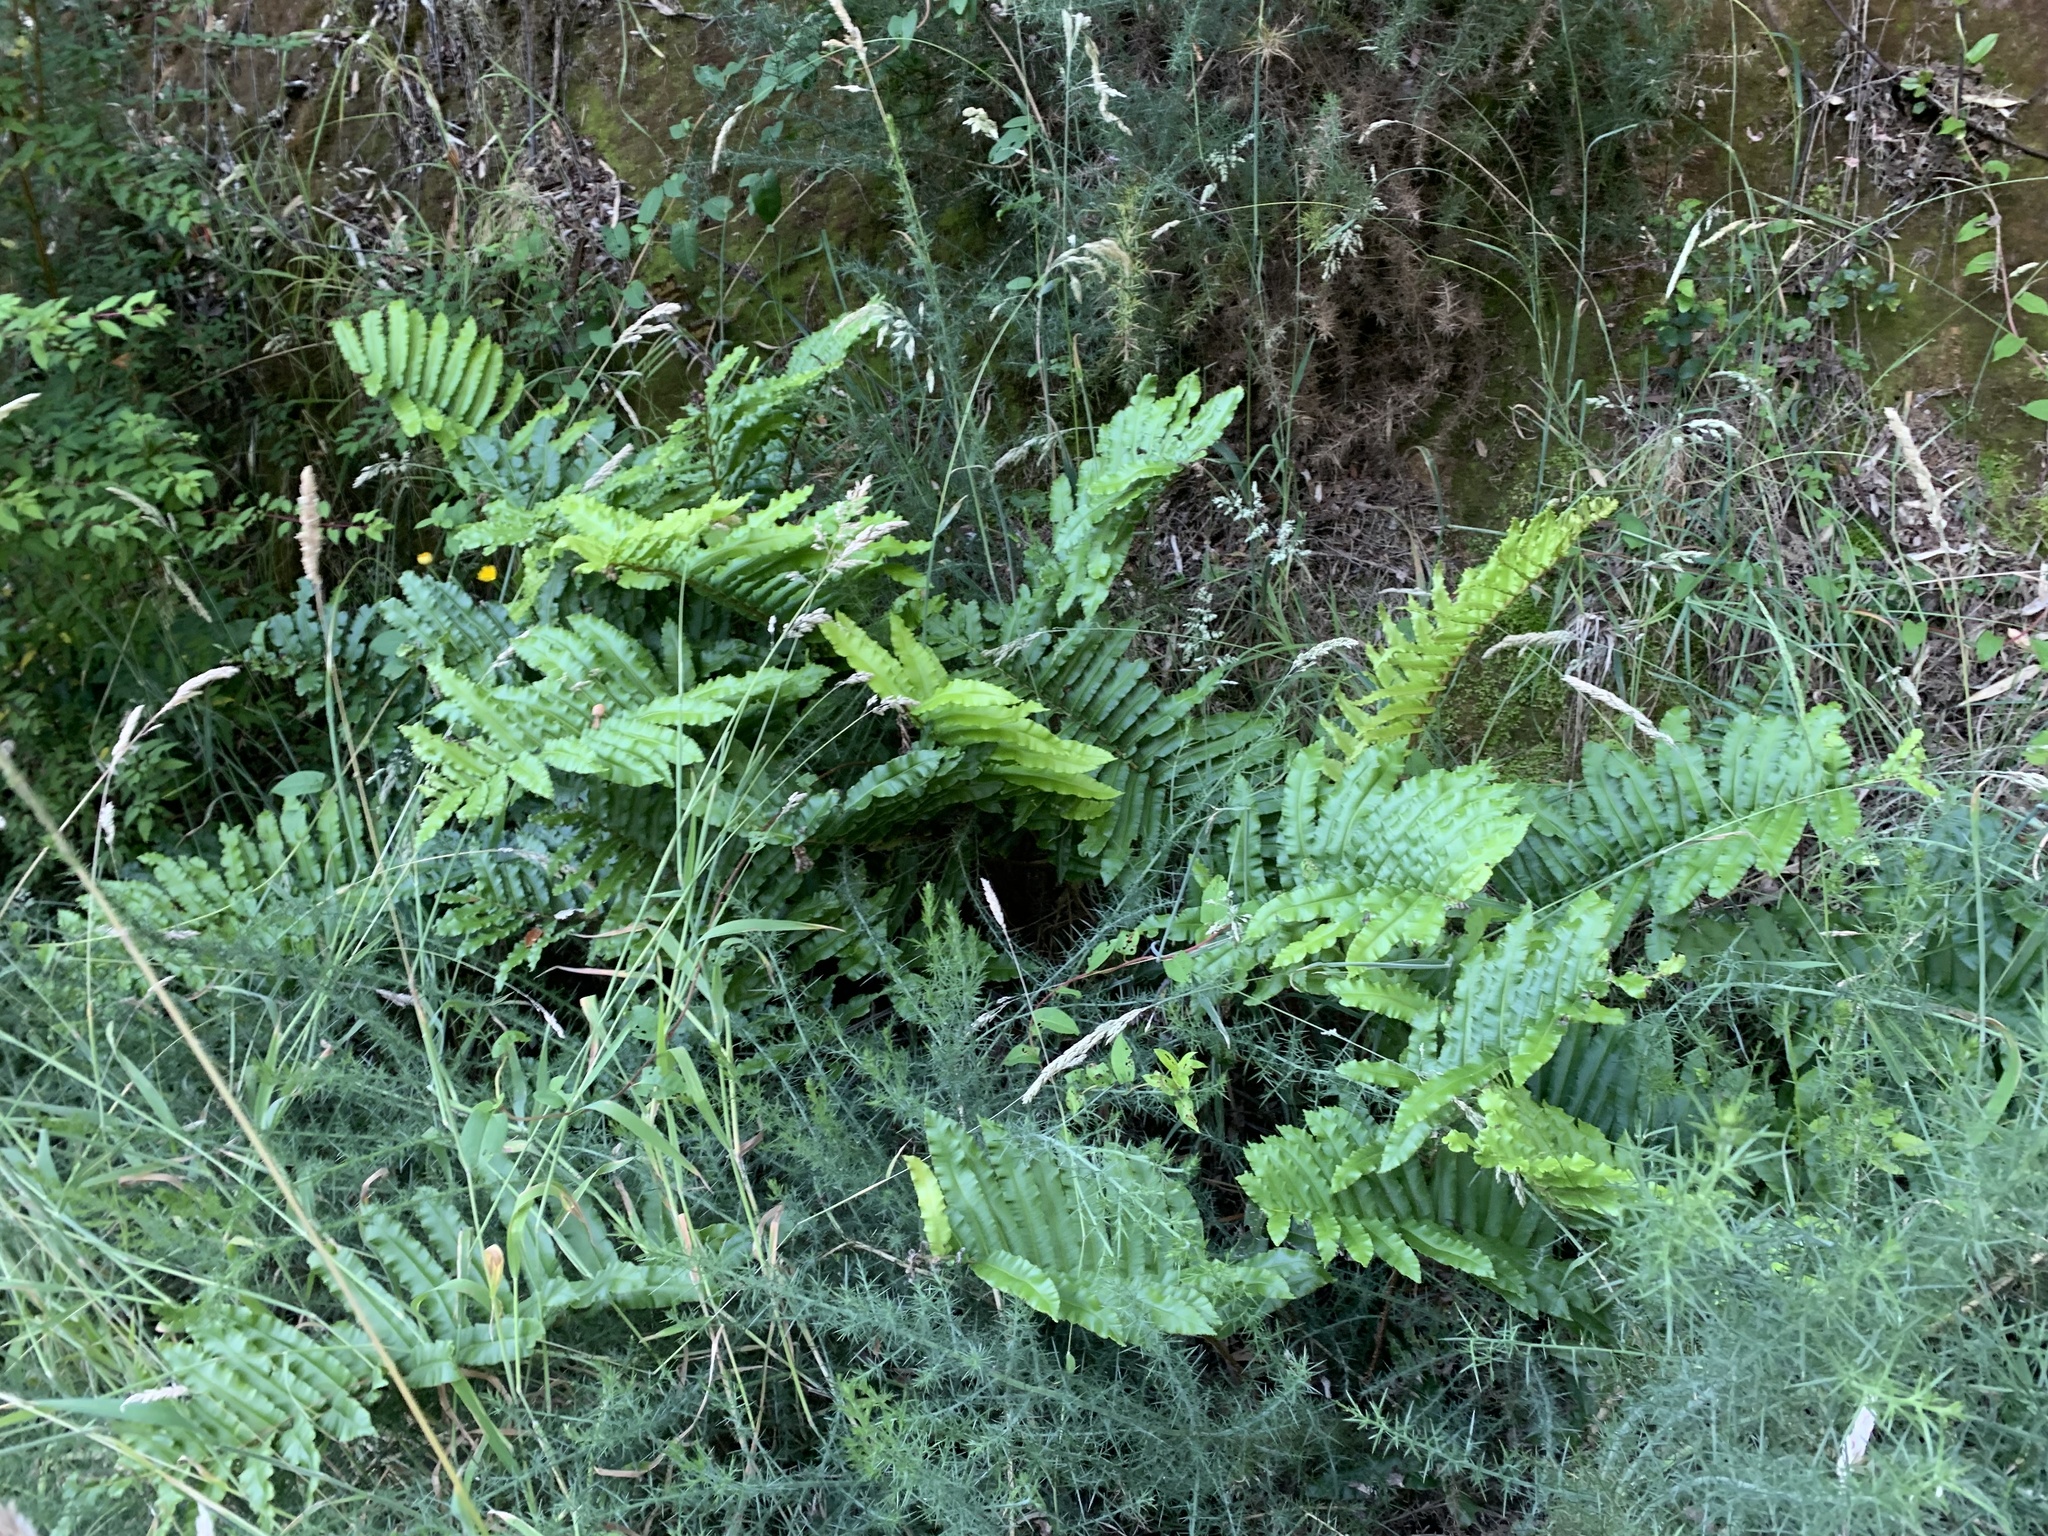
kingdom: Plantae
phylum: Tracheophyta
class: Polypodiopsida
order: Polypodiales
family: Blechnaceae
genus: Parablechnum
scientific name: Parablechnum chilense
